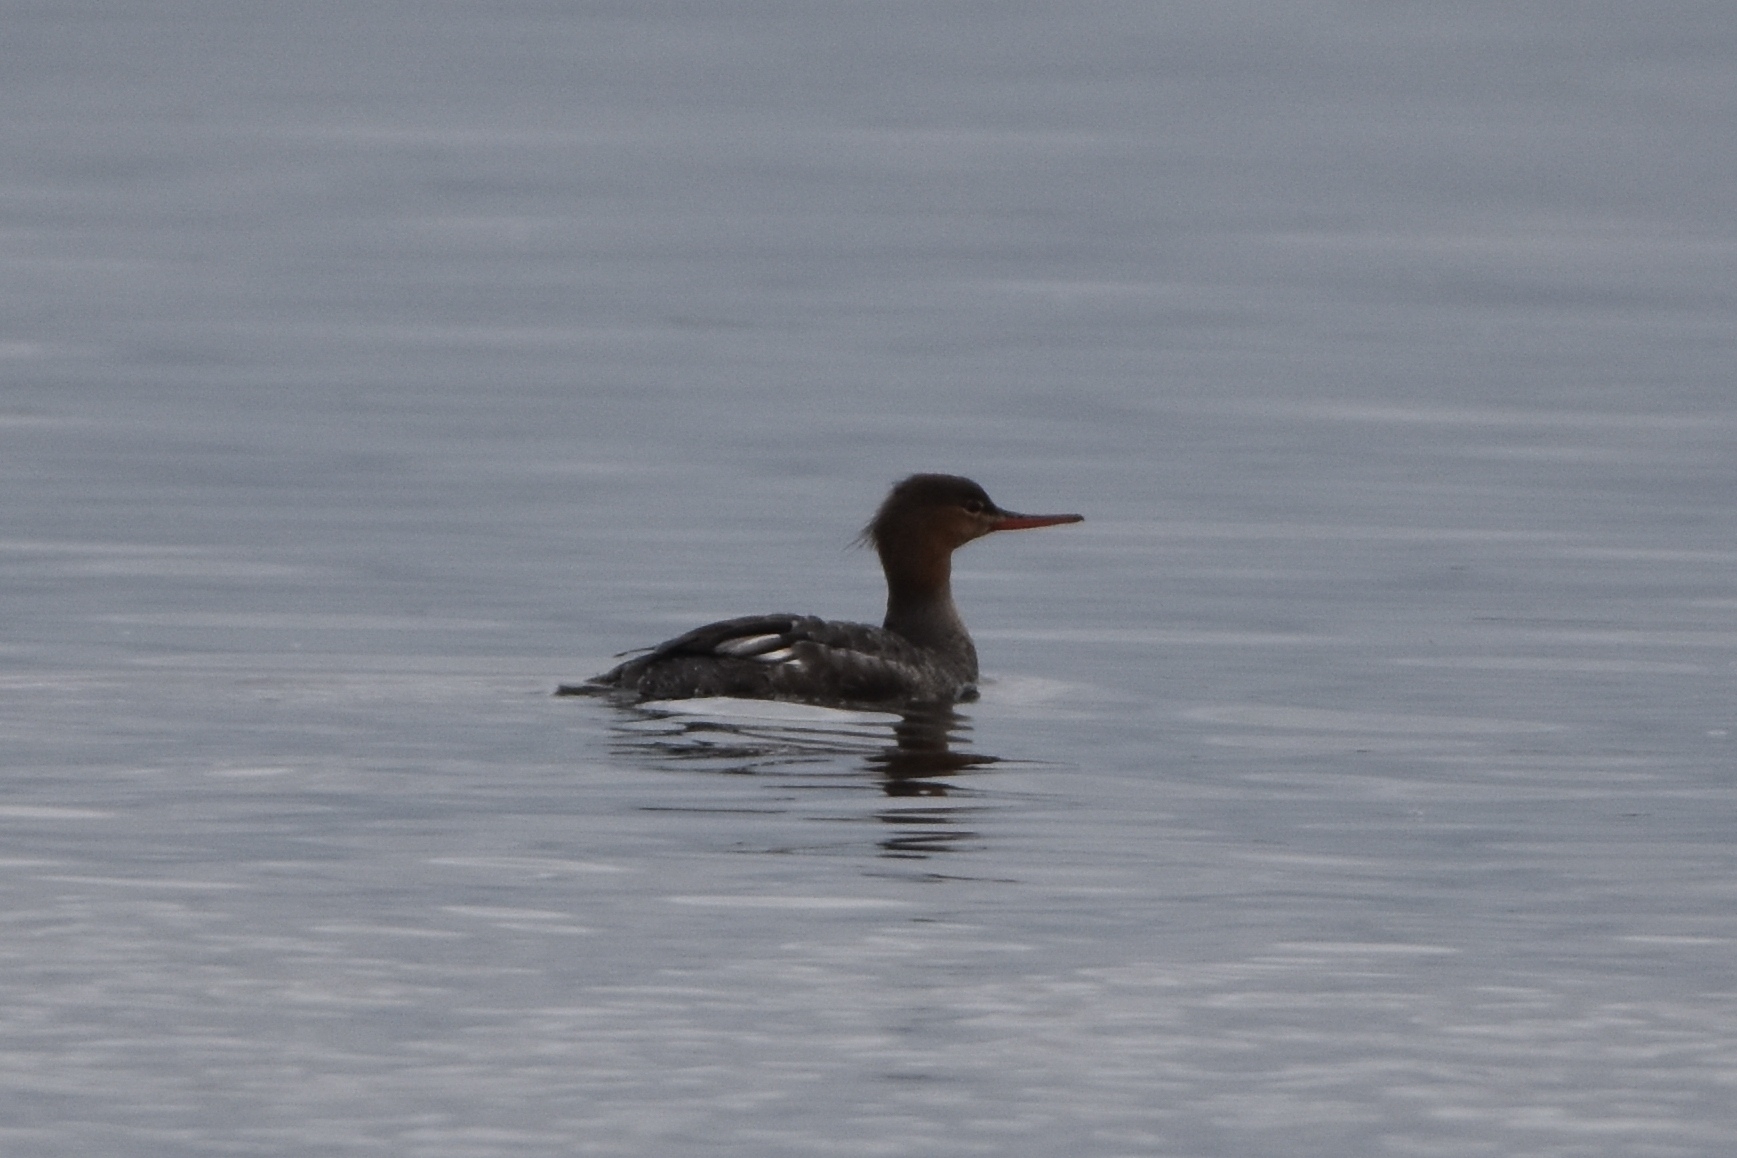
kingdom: Animalia
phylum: Chordata
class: Aves
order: Anseriformes
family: Anatidae
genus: Mergus
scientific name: Mergus serrator
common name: Red-breasted merganser
